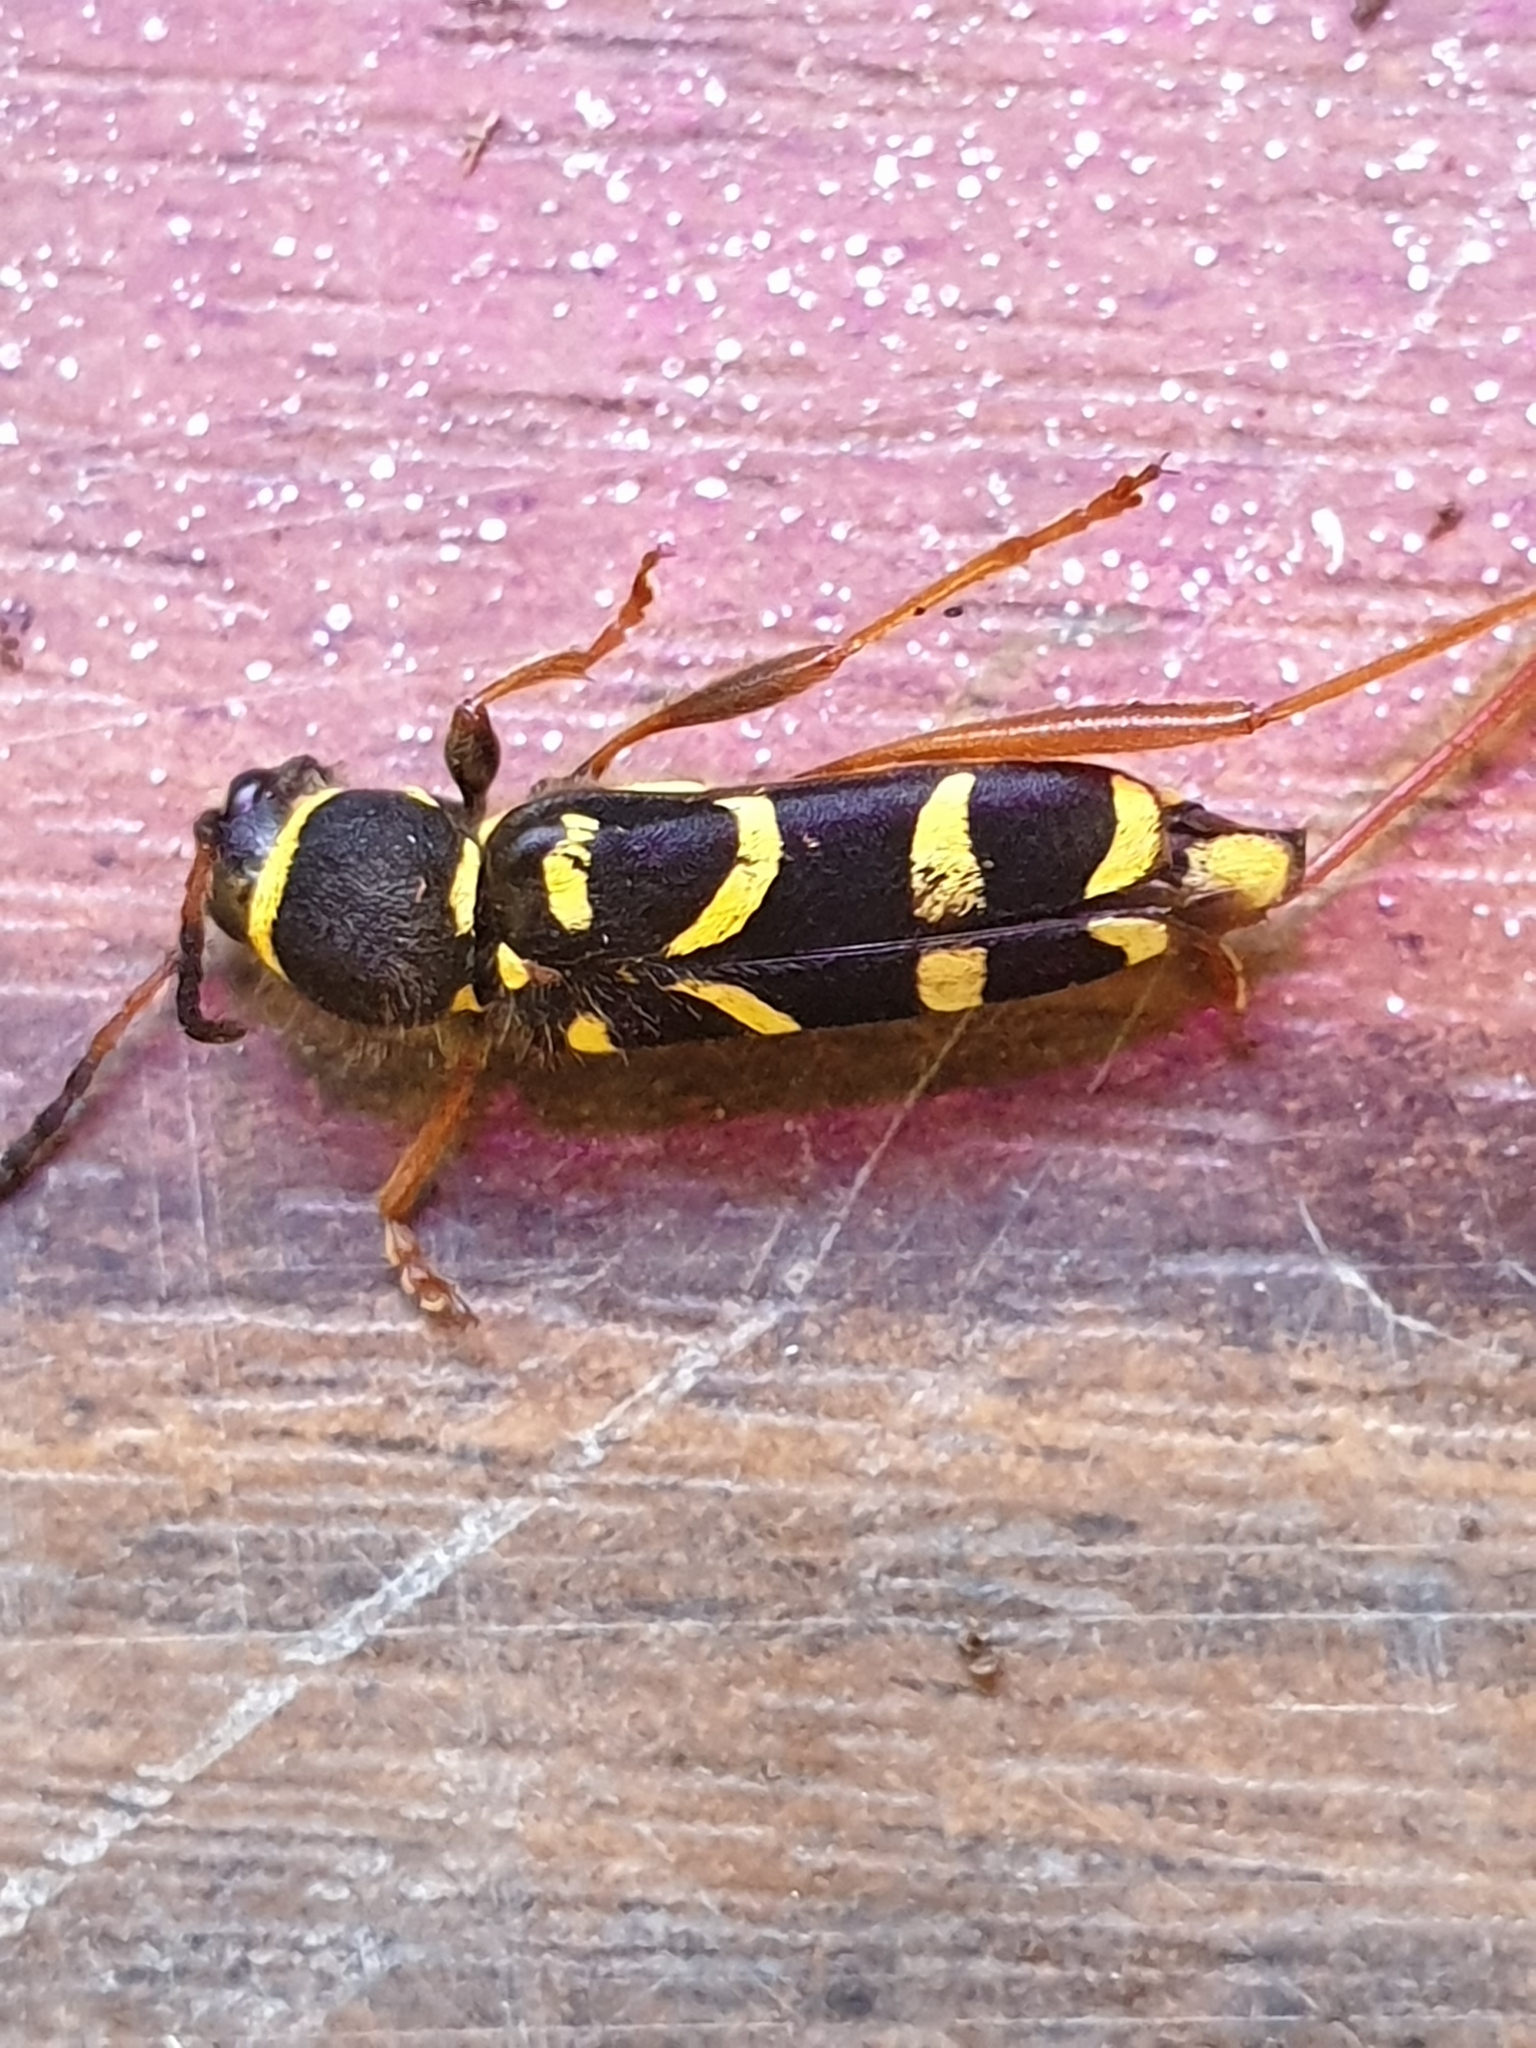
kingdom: Animalia
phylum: Arthropoda
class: Insecta
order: Coleoptera
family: Cerambycidae
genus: Clytus
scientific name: Clytus arietis
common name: Wasp beetle
